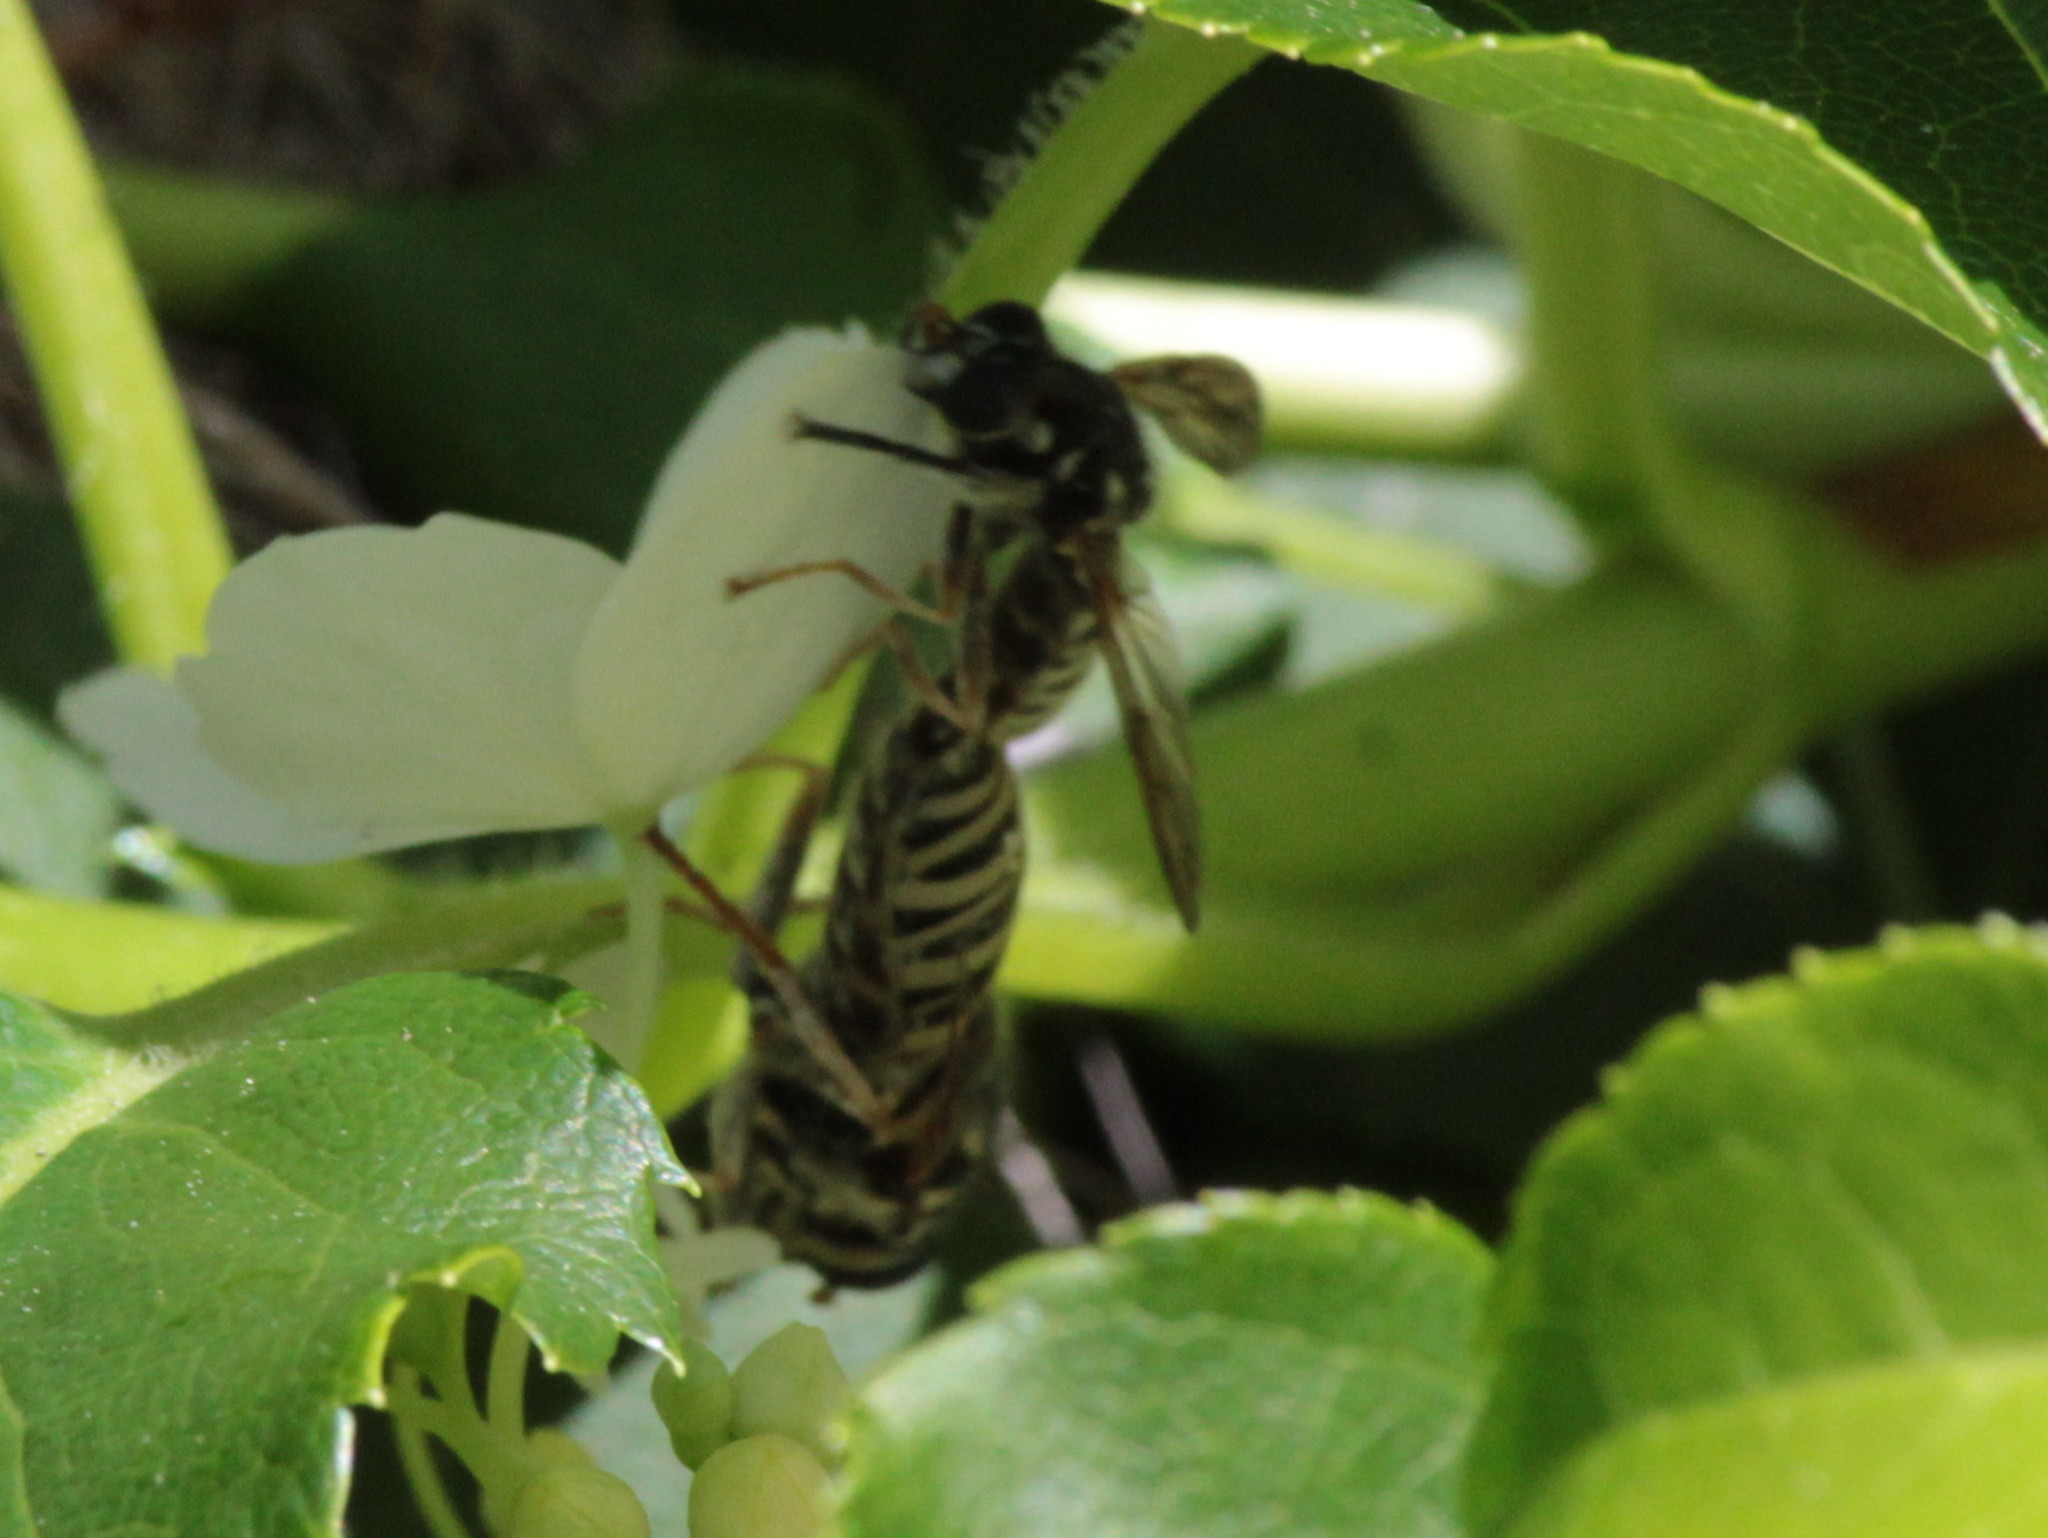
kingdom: Animalia
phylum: Arthropoda
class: Insecta
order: Diptera
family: Syrphidae
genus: Temnostoma
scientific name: Temnostoma excentricum
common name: Black-spotted falsehorn
